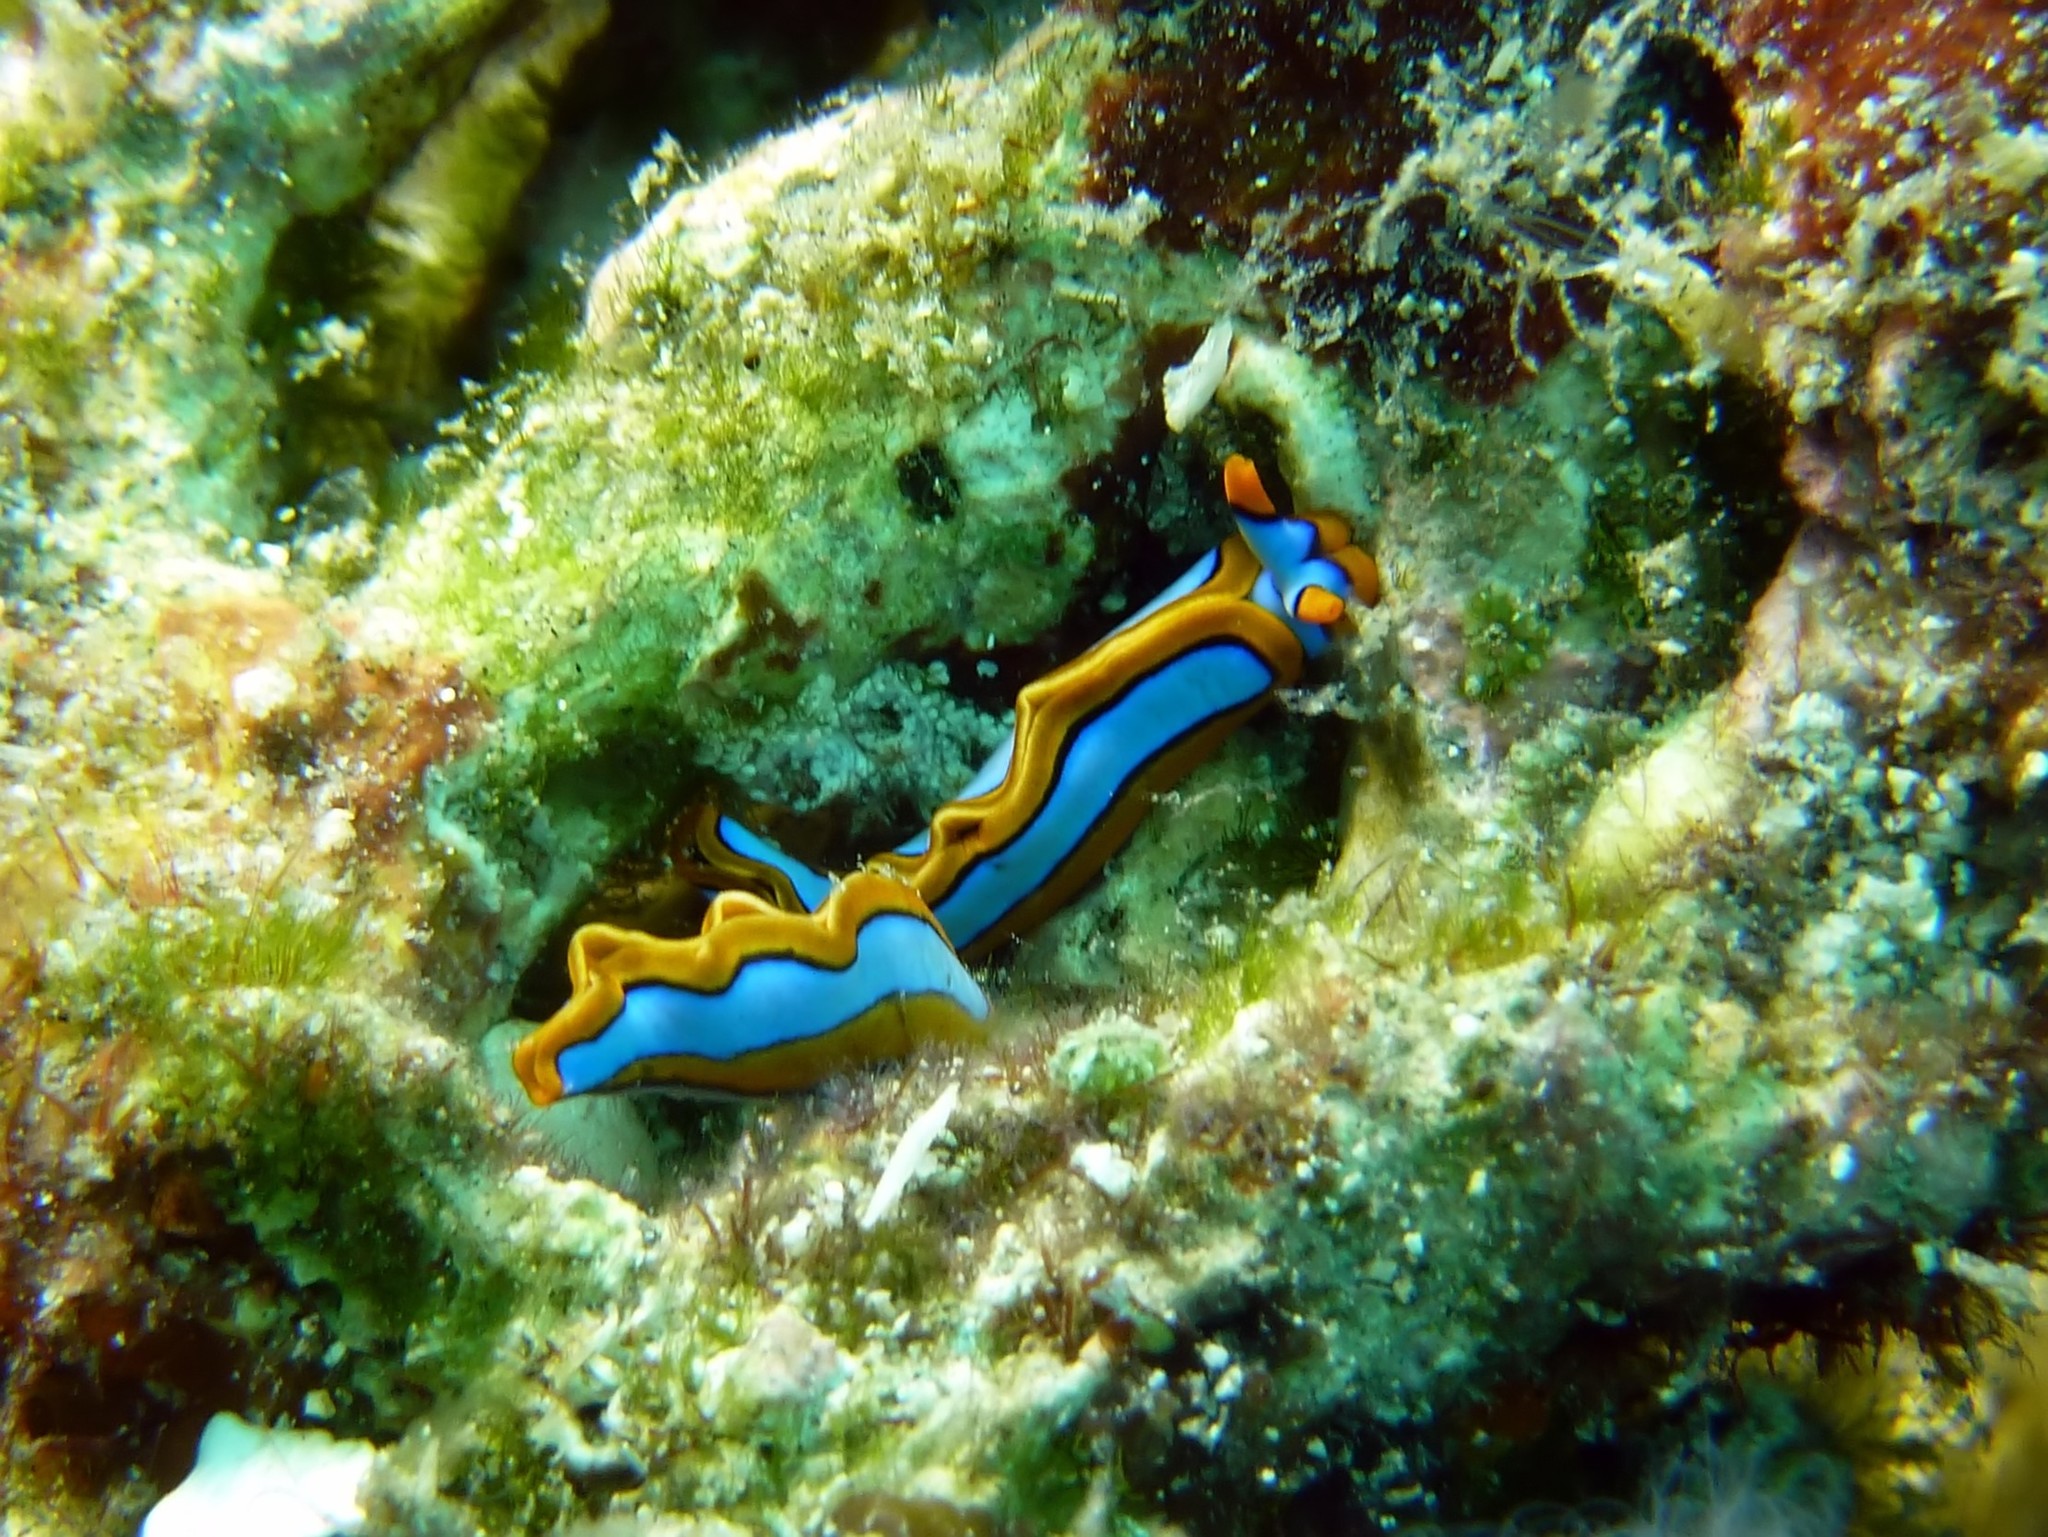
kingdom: Animalia
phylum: Mollusca
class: Gastropoda
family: Plakobranchidae
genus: Thuridilla
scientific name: Thuridilla lineolata
